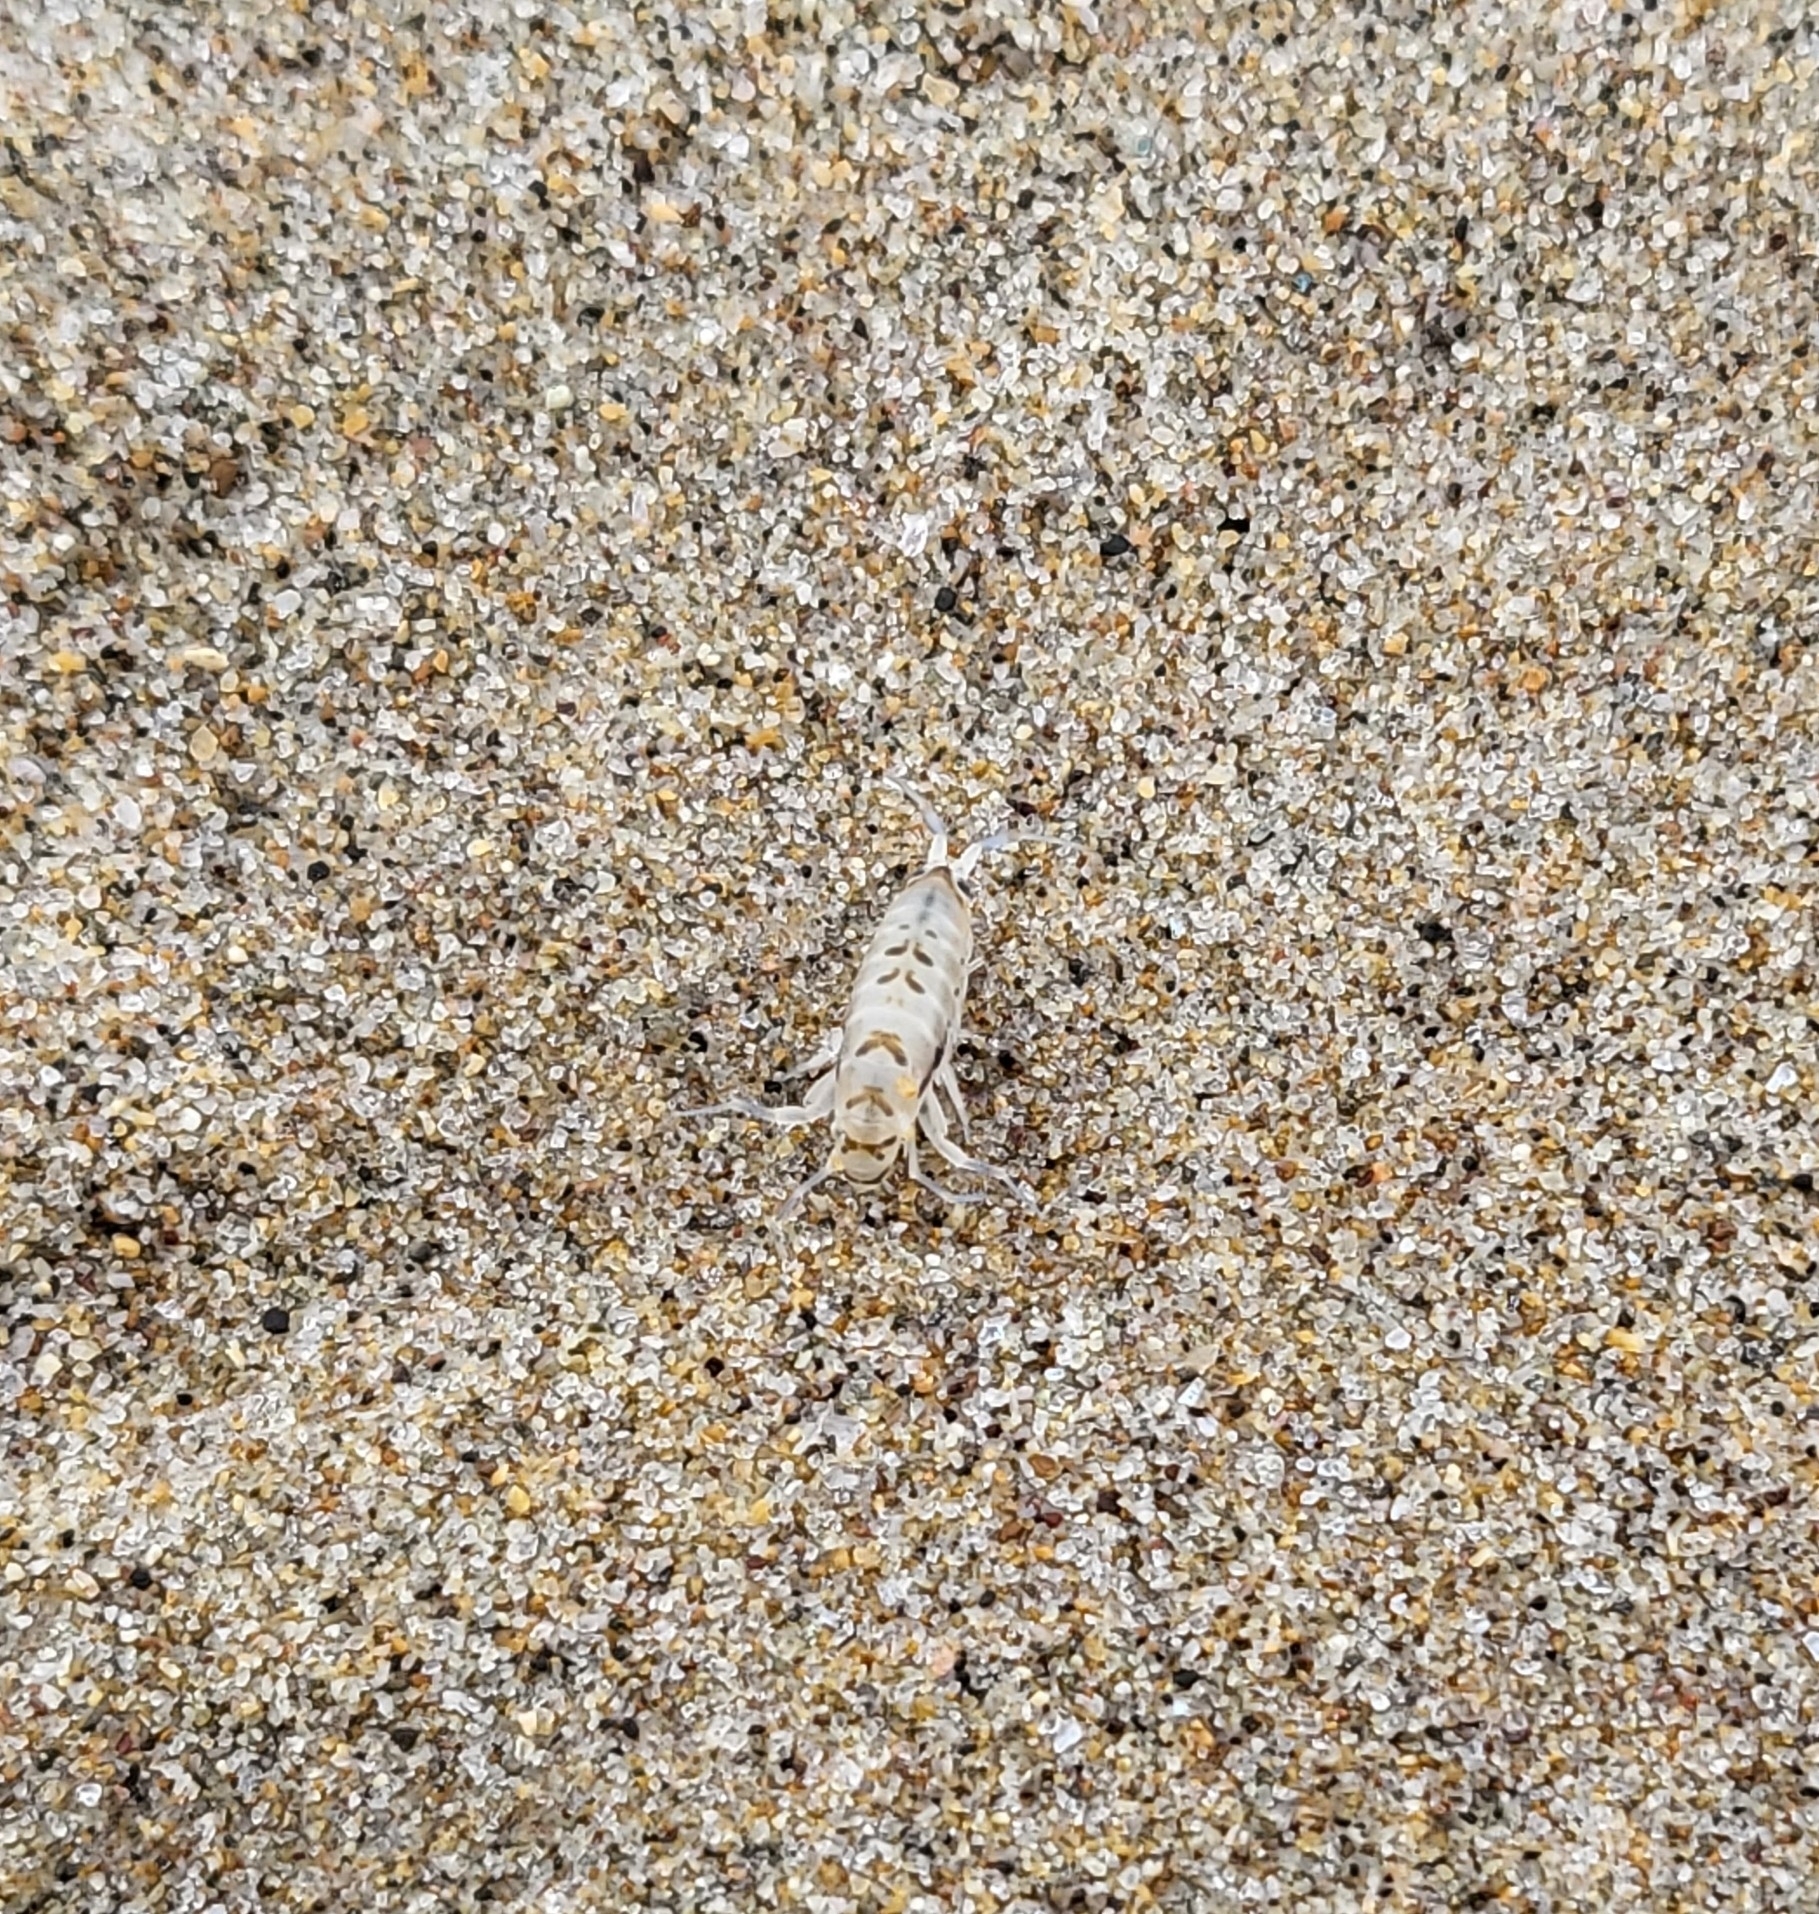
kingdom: Animalia
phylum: Arthropoda
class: Malacostraca
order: Amphipoda
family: Talitridae
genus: Megalorchestia
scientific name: Megalorchestia minor
